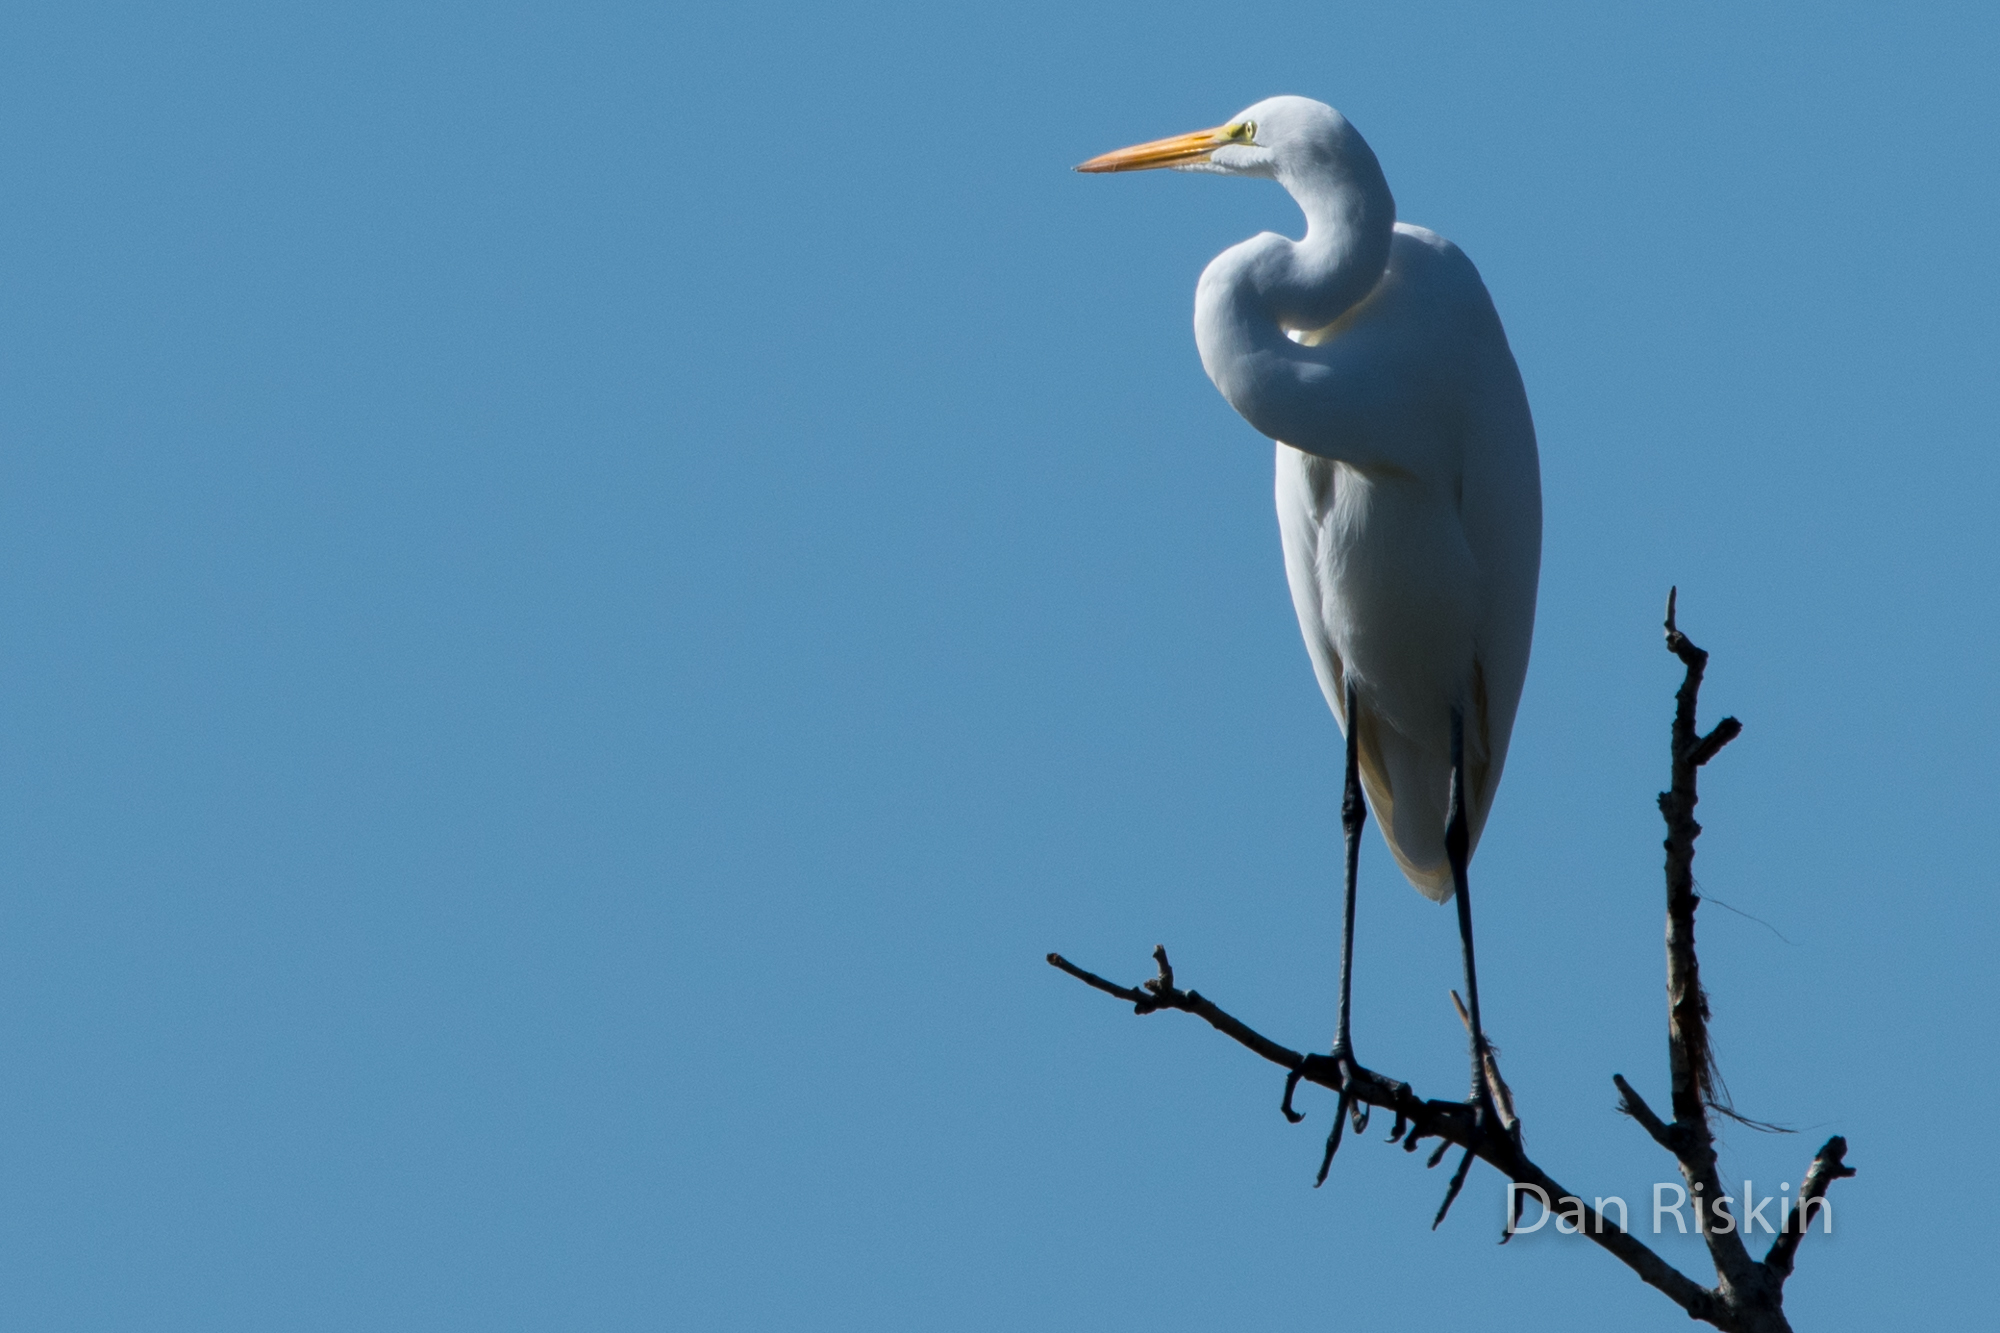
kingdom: Animalia
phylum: Chordata
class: Aves
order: Pelecaniformes
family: Ardeidae
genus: Ardea
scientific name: Ardea alba
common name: Great egret
